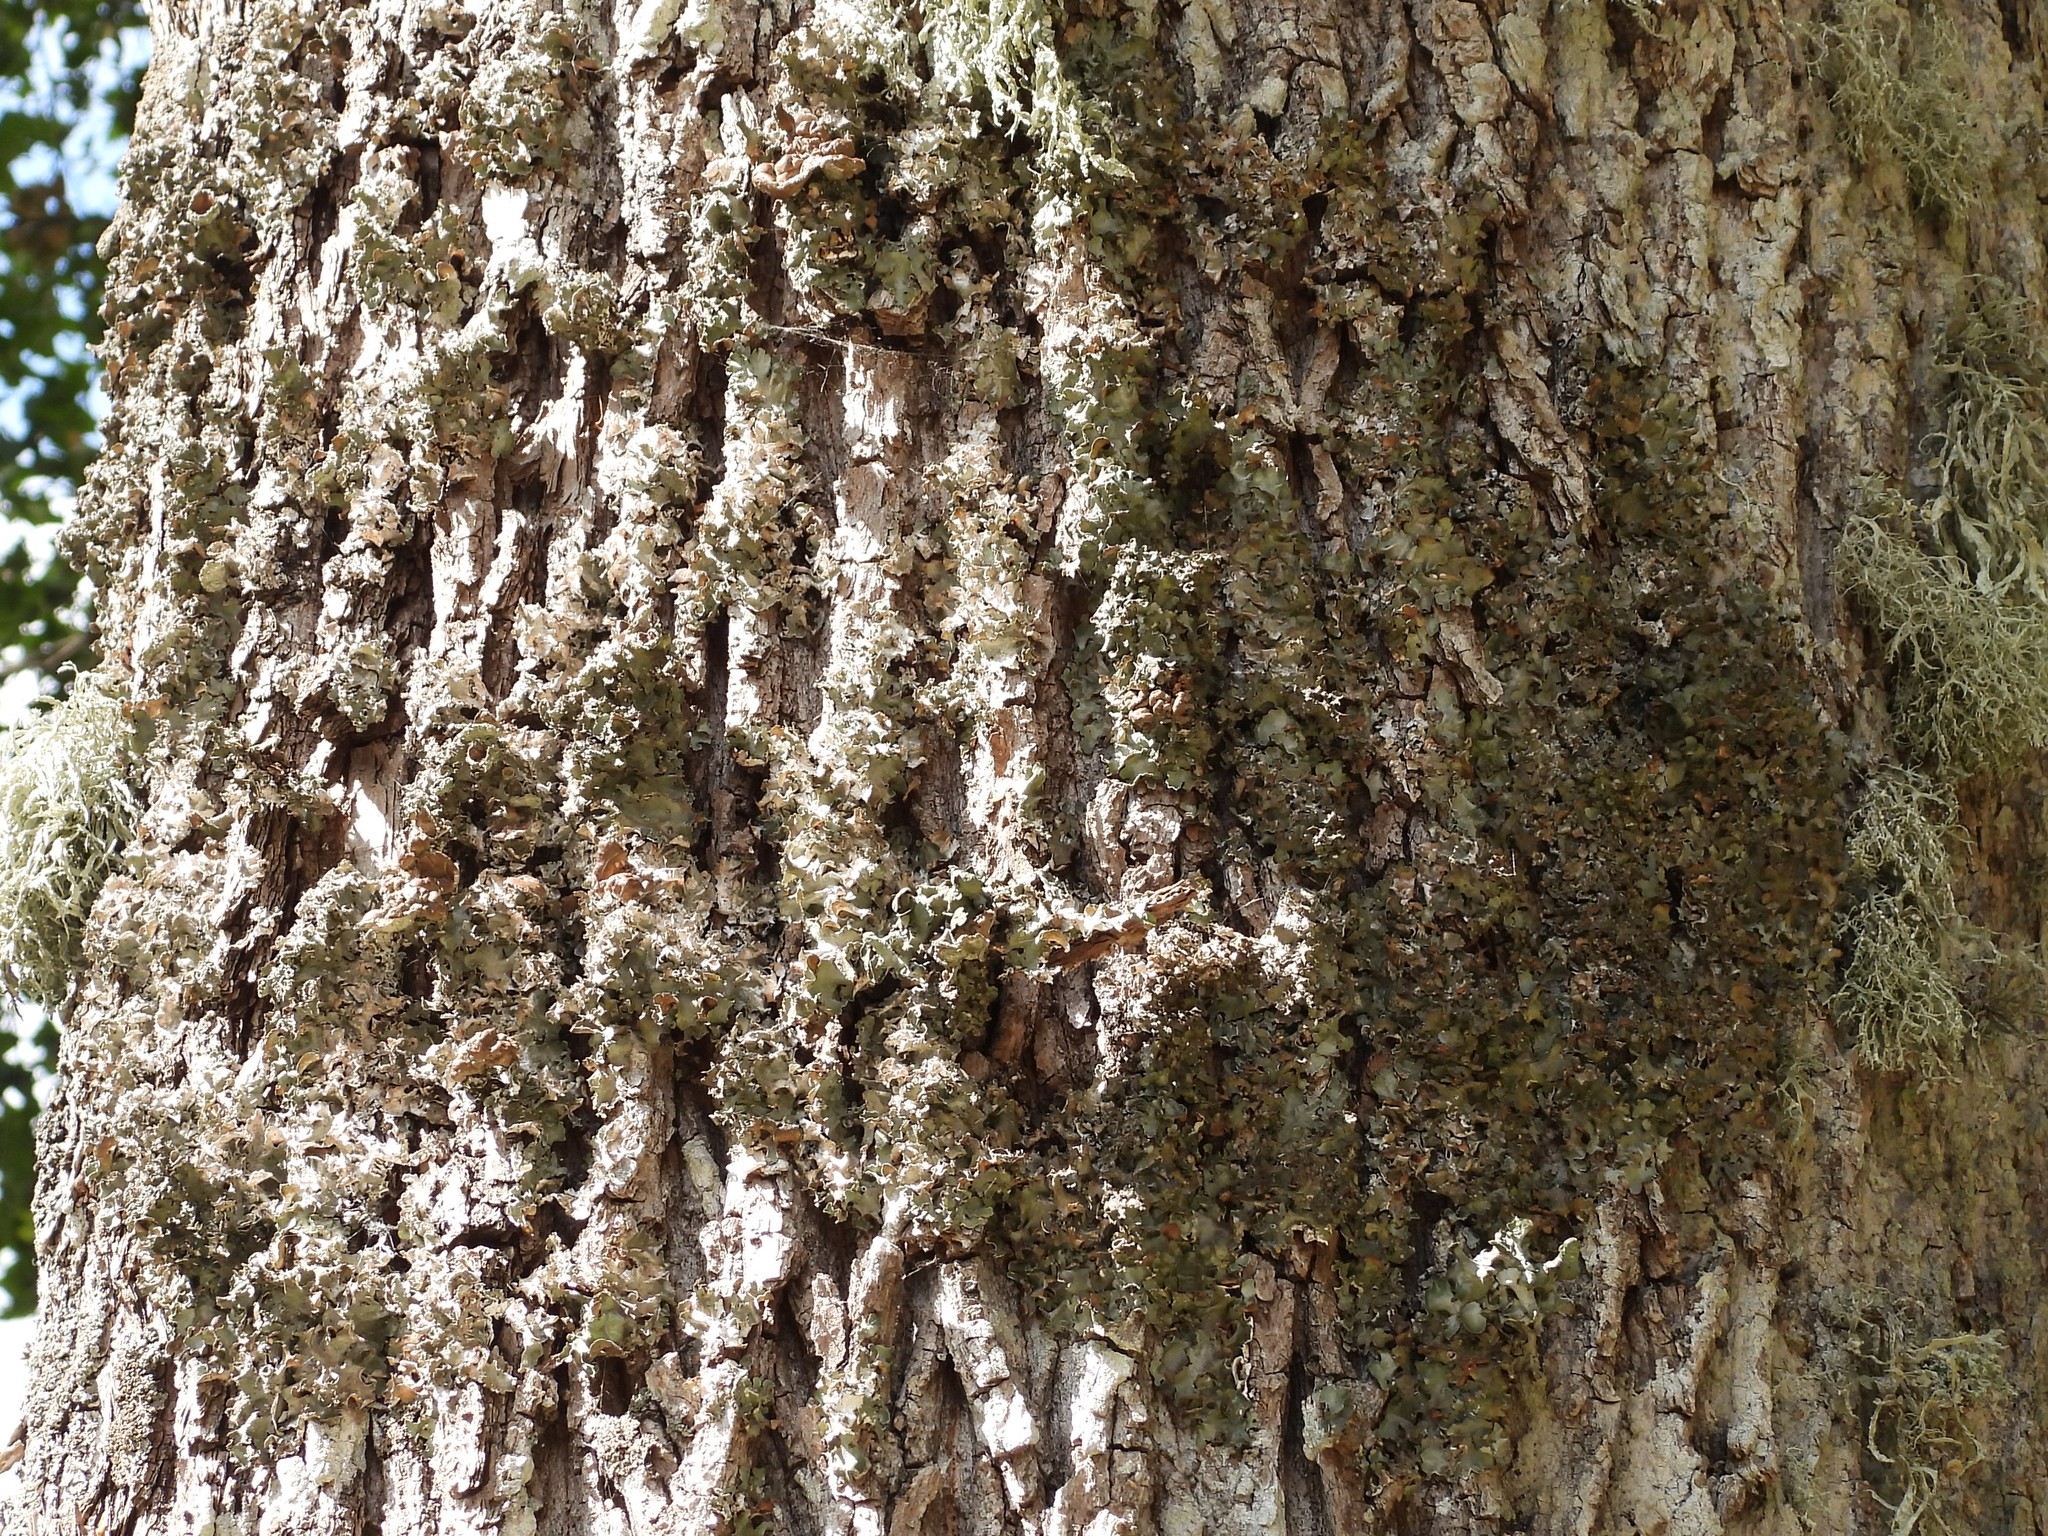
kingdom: Fungi
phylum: Ascomycota
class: Lecanoromycetes
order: Lecanorales
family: Parmeliaceae
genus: Pleurosticta
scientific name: Pleurosticta acetabulum
